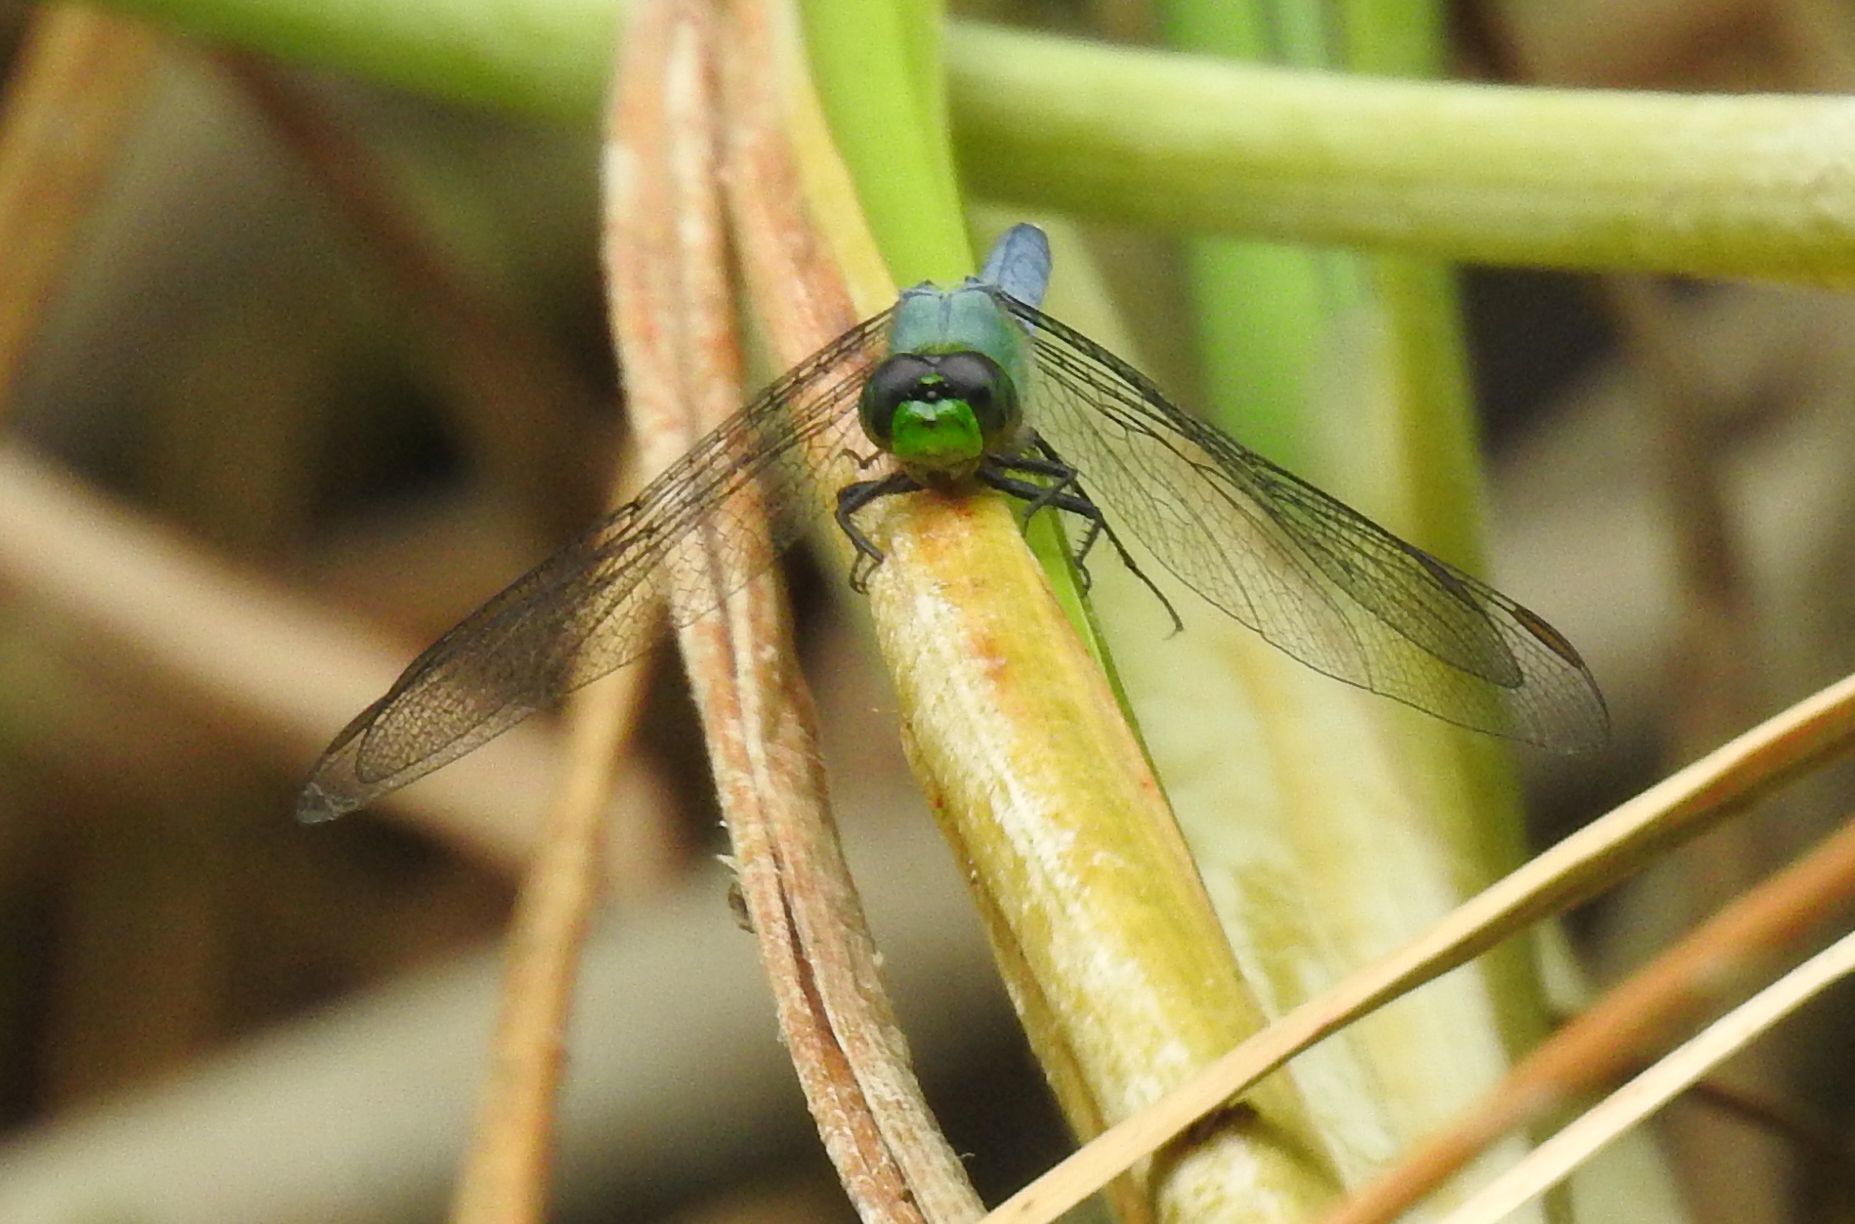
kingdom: Animalia
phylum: Arthropoda
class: Insecta
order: Odonata
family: Libellulidae
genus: Erythemis
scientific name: Erythemis simplicicollis
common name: Eastern pondhawk
